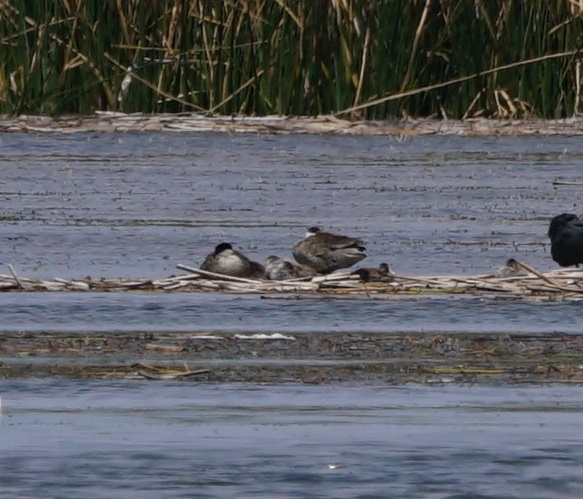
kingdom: Animalia
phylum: Chordata
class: Aves
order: Anseriformes
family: Anatidae
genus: Spatula
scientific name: Spatula puna
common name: Puna teal
